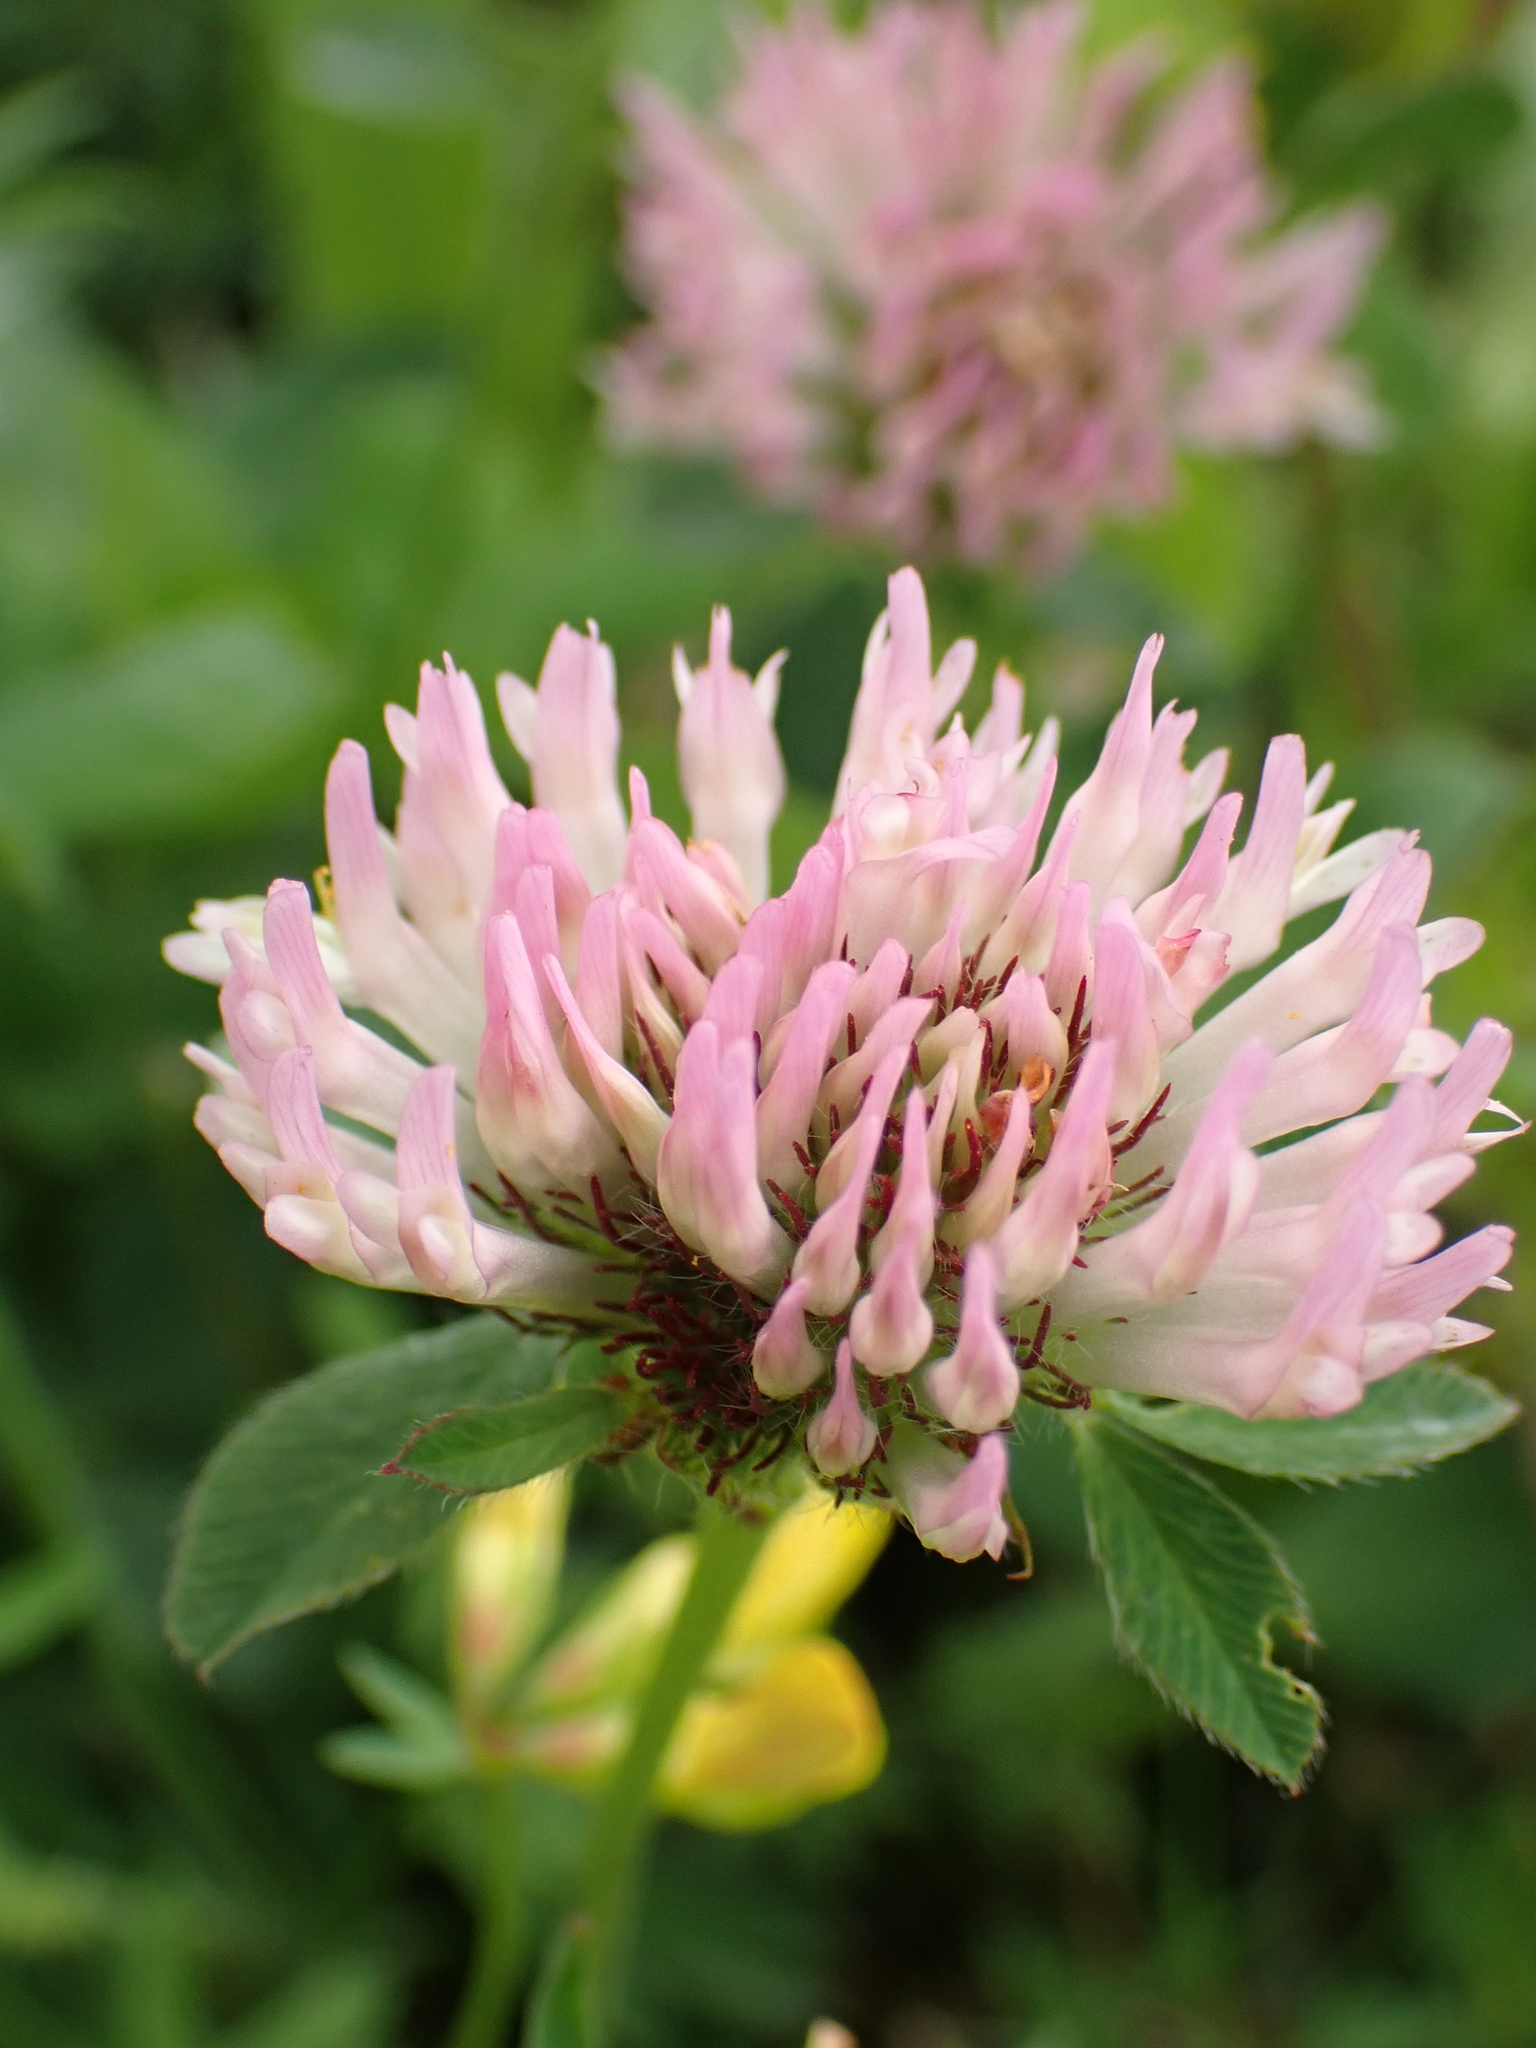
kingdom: Plantae
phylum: Tracheophyta
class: Magnoliopsida
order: Fabales
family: Fabaceae
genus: Trifolium
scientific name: Trifolium pratense
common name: Red clover
